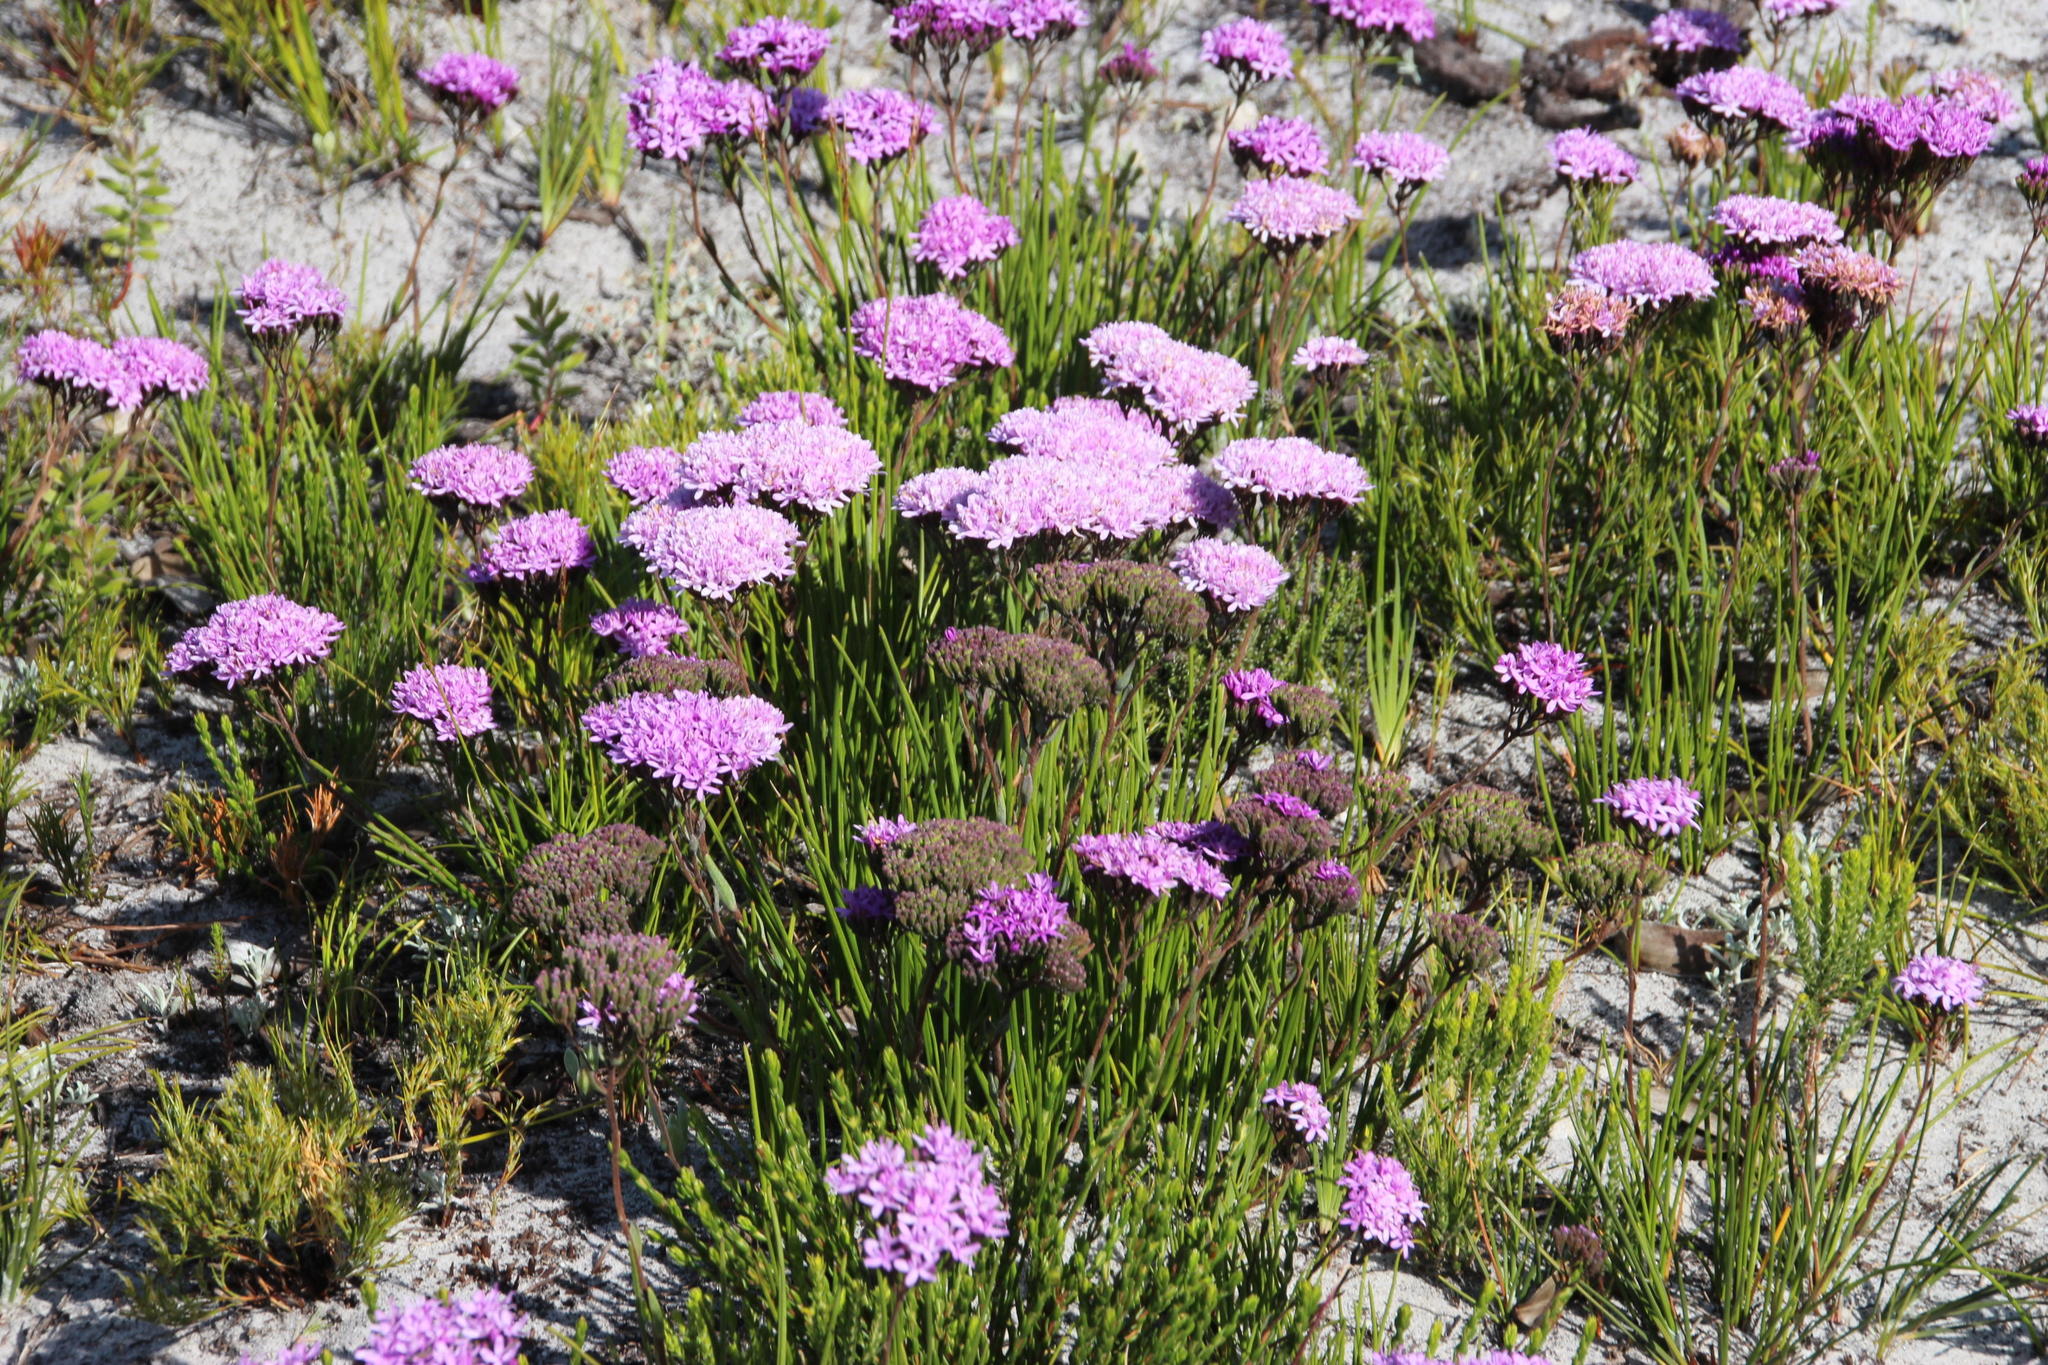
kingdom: Plantae
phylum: Tracheophyta
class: Magnoliopsida
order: Asterales
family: Asteraceae
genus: Corymbium
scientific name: Corymbium africanum
